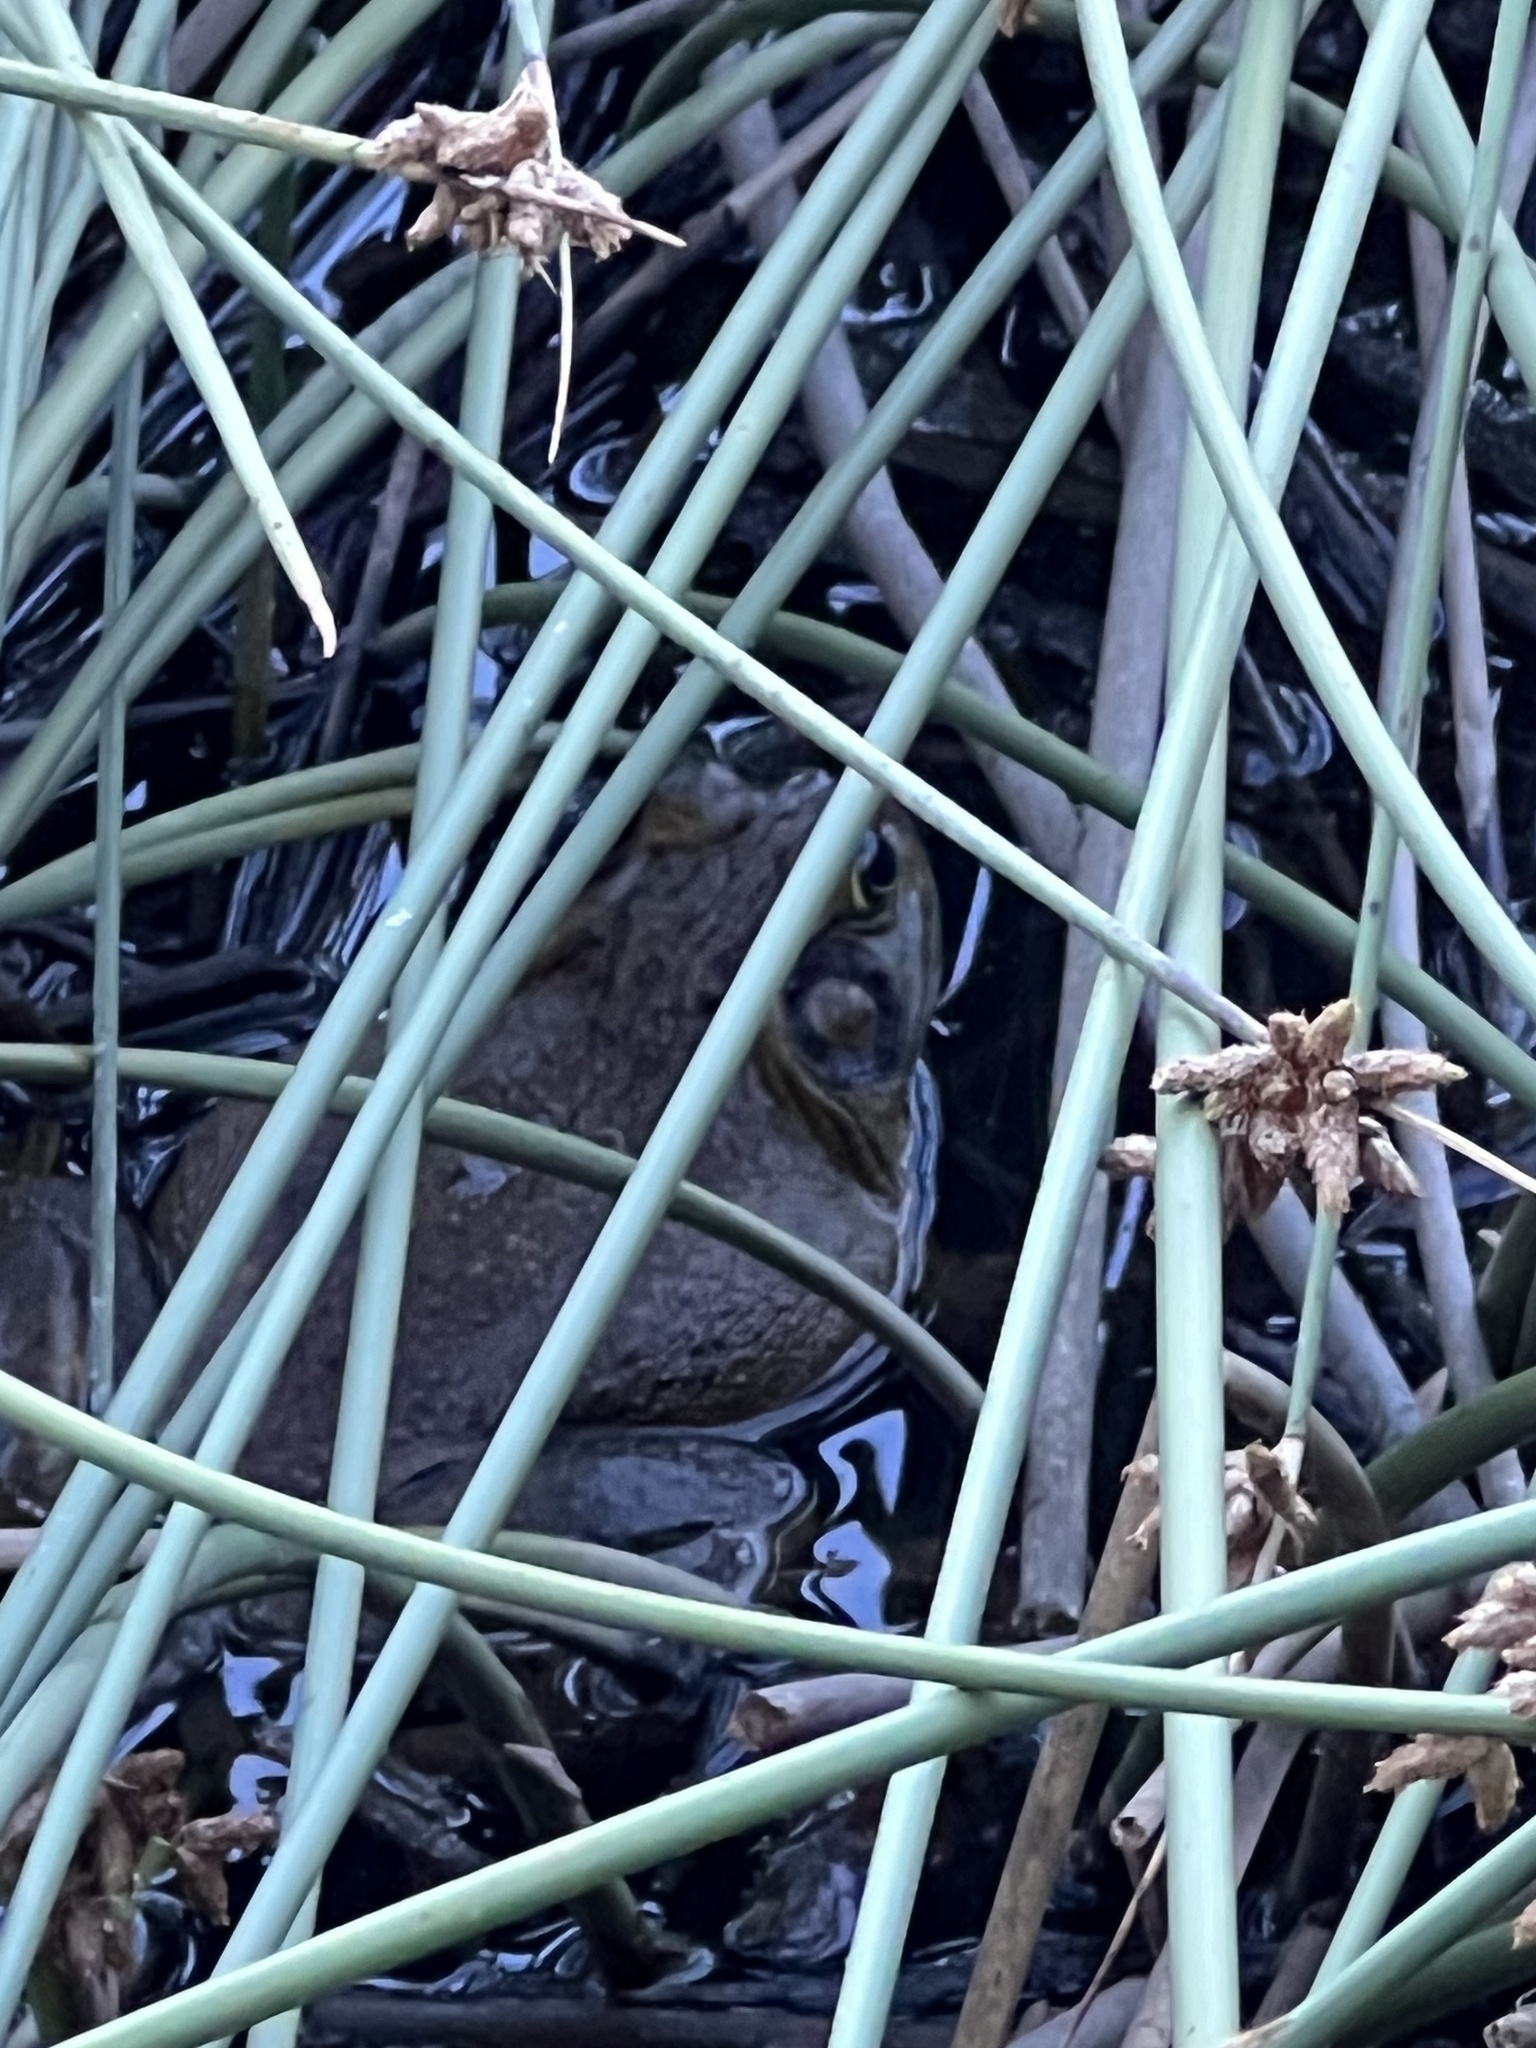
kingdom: Animalia
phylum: Chordata
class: Amphibia
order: Anura
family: Ranidae
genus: Lithobates
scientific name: Lithobates catesbeianus
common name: American bullfrog
